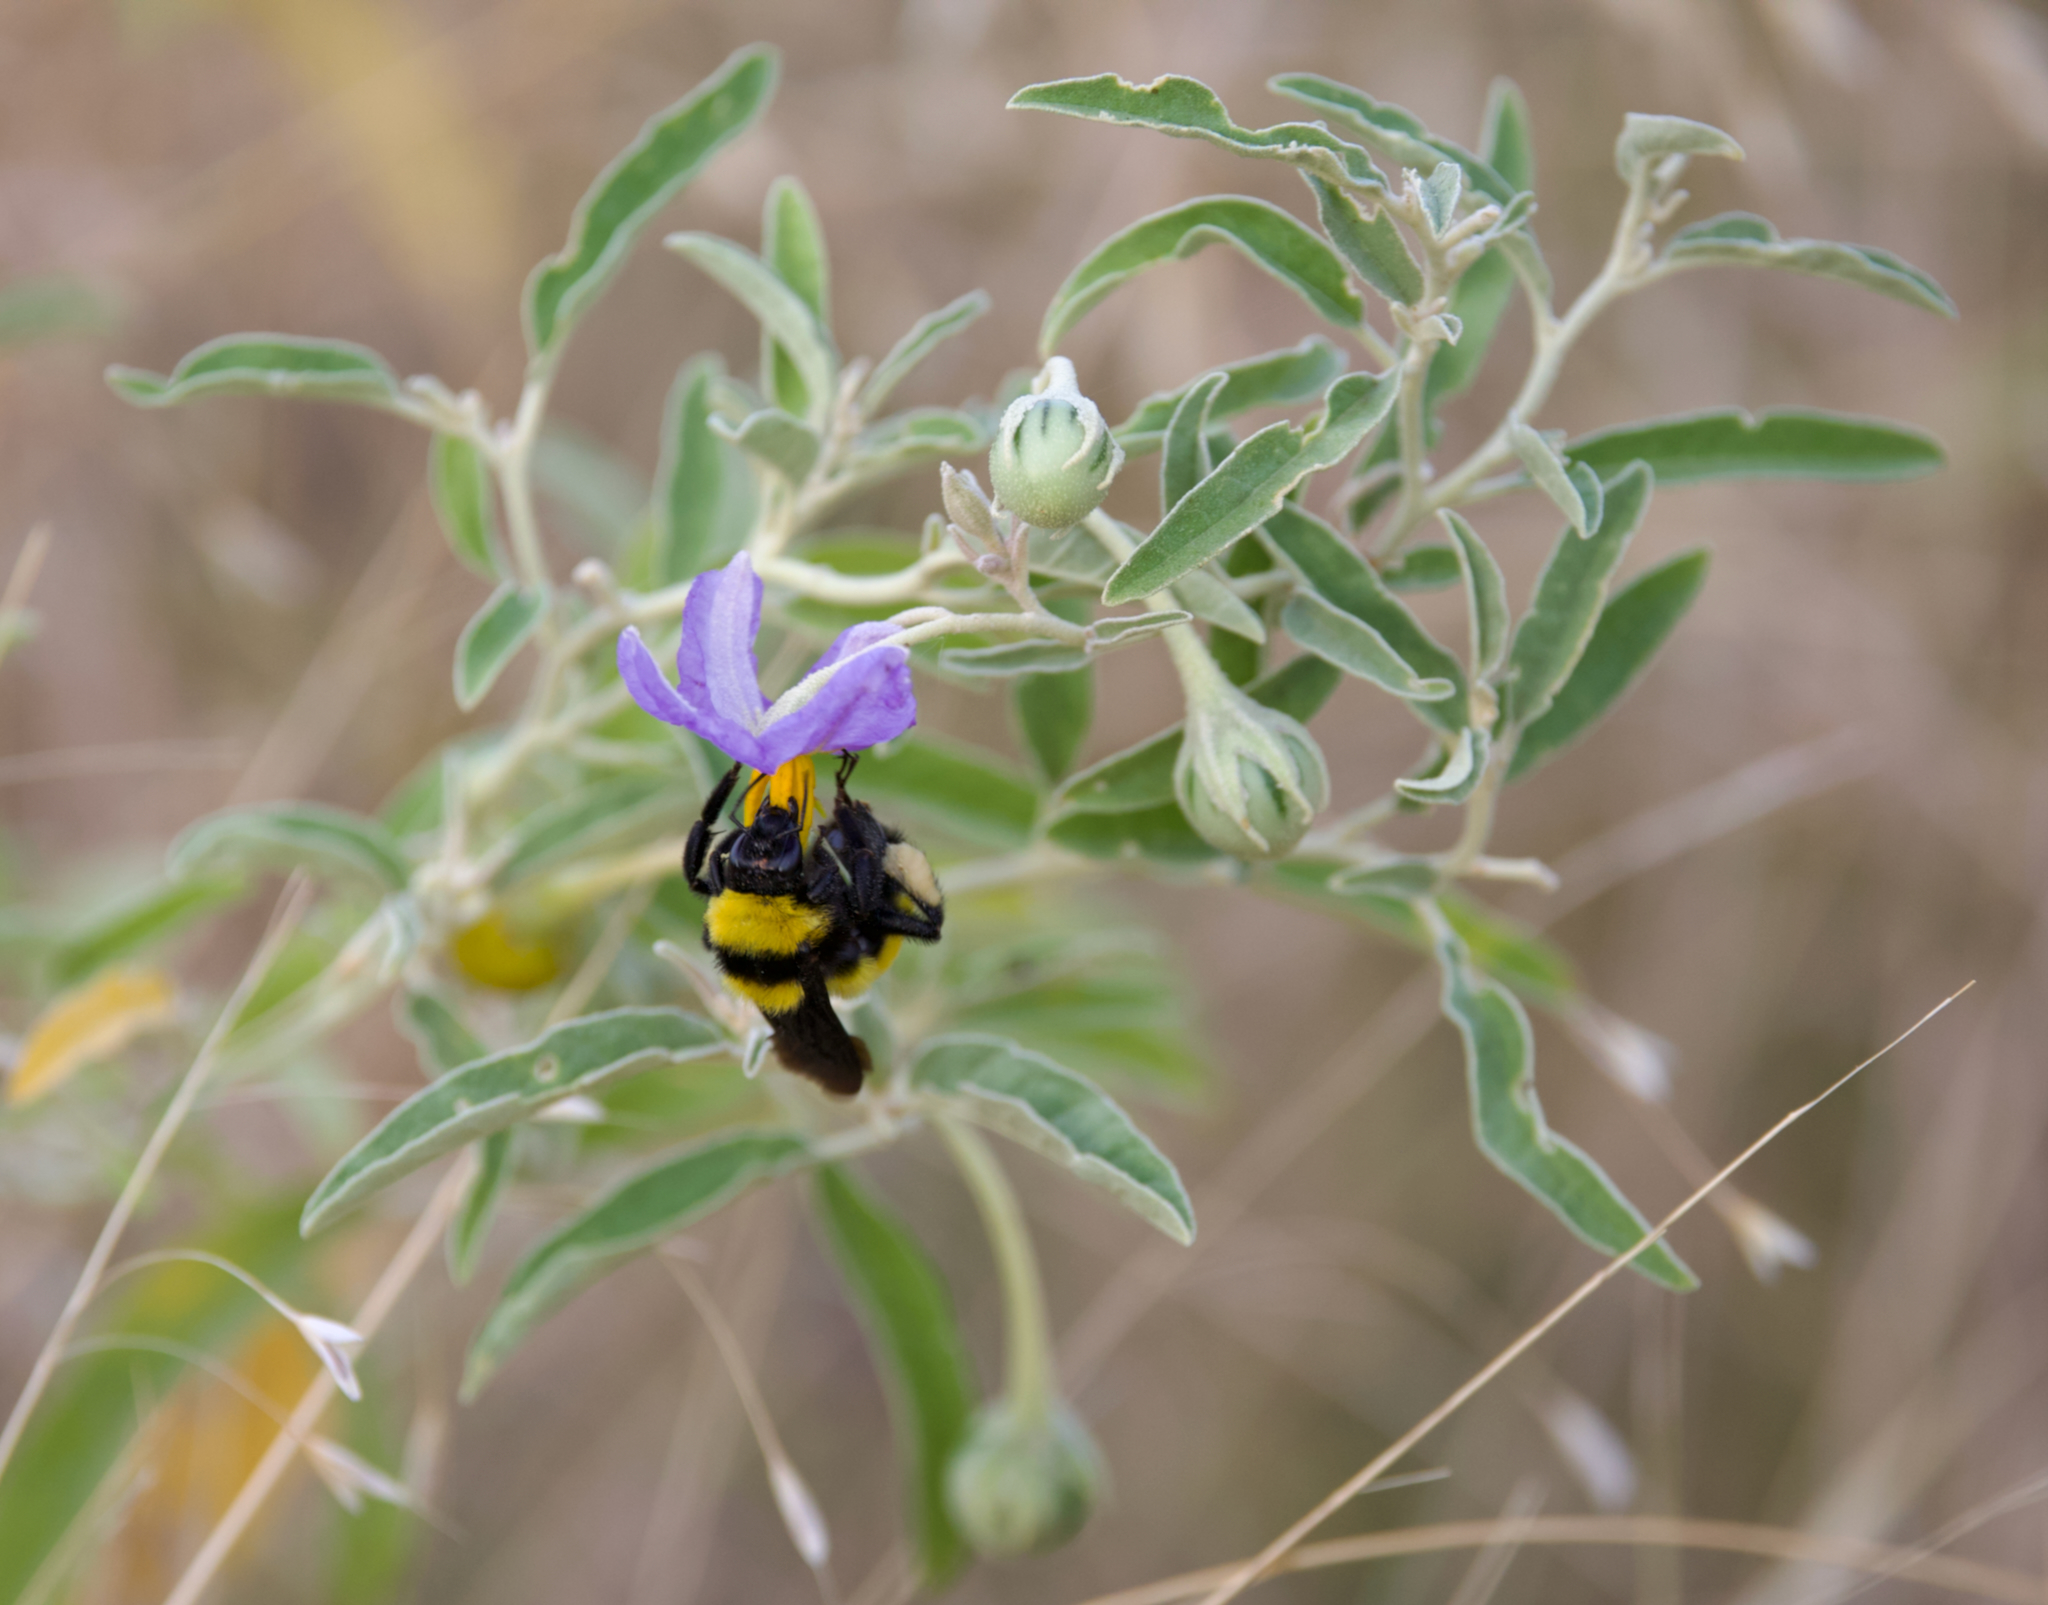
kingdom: Plantae
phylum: Tracheophyta
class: Magnoliopsida
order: Solanales
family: Solanaceae
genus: Solanum
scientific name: Solanum elaeagnifolium
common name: Silverleaf nightshade
